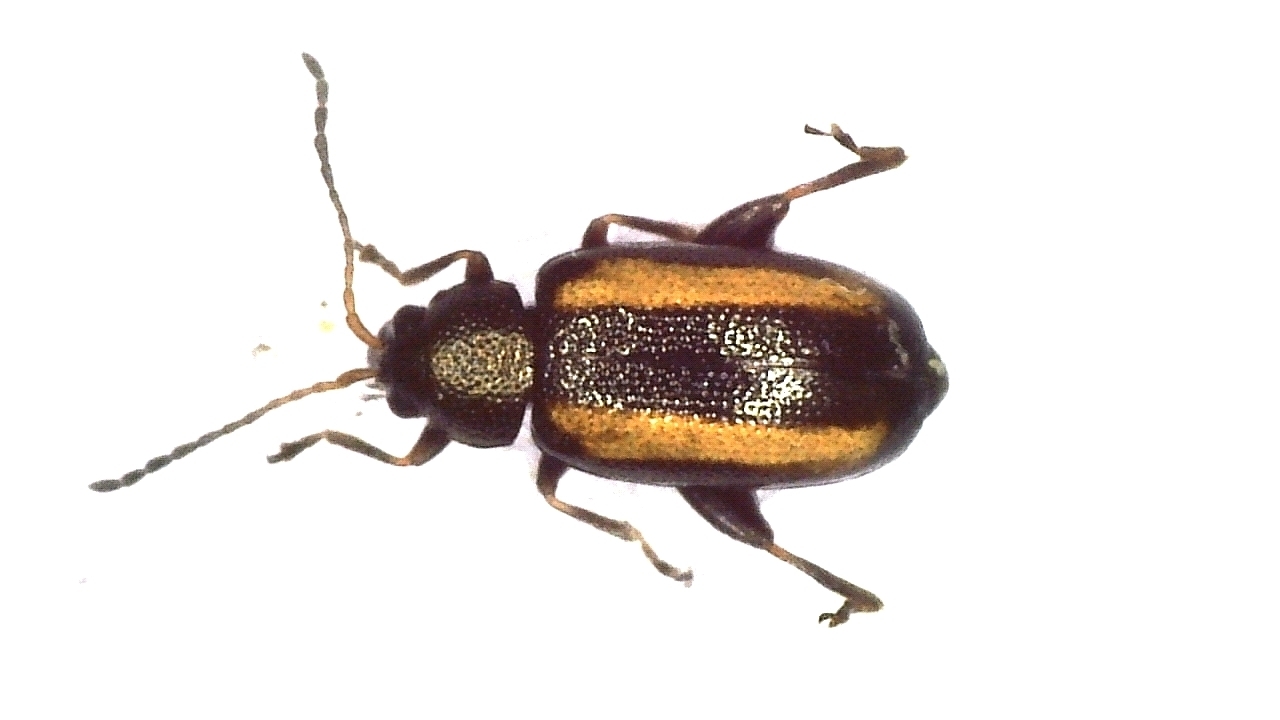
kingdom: Animalia
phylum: Arthropoda
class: Insecta
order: Coleoptera
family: Chrysomelidae
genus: Phyllotreta
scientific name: Phyllotreta nemorum
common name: Large striped flea beetle
